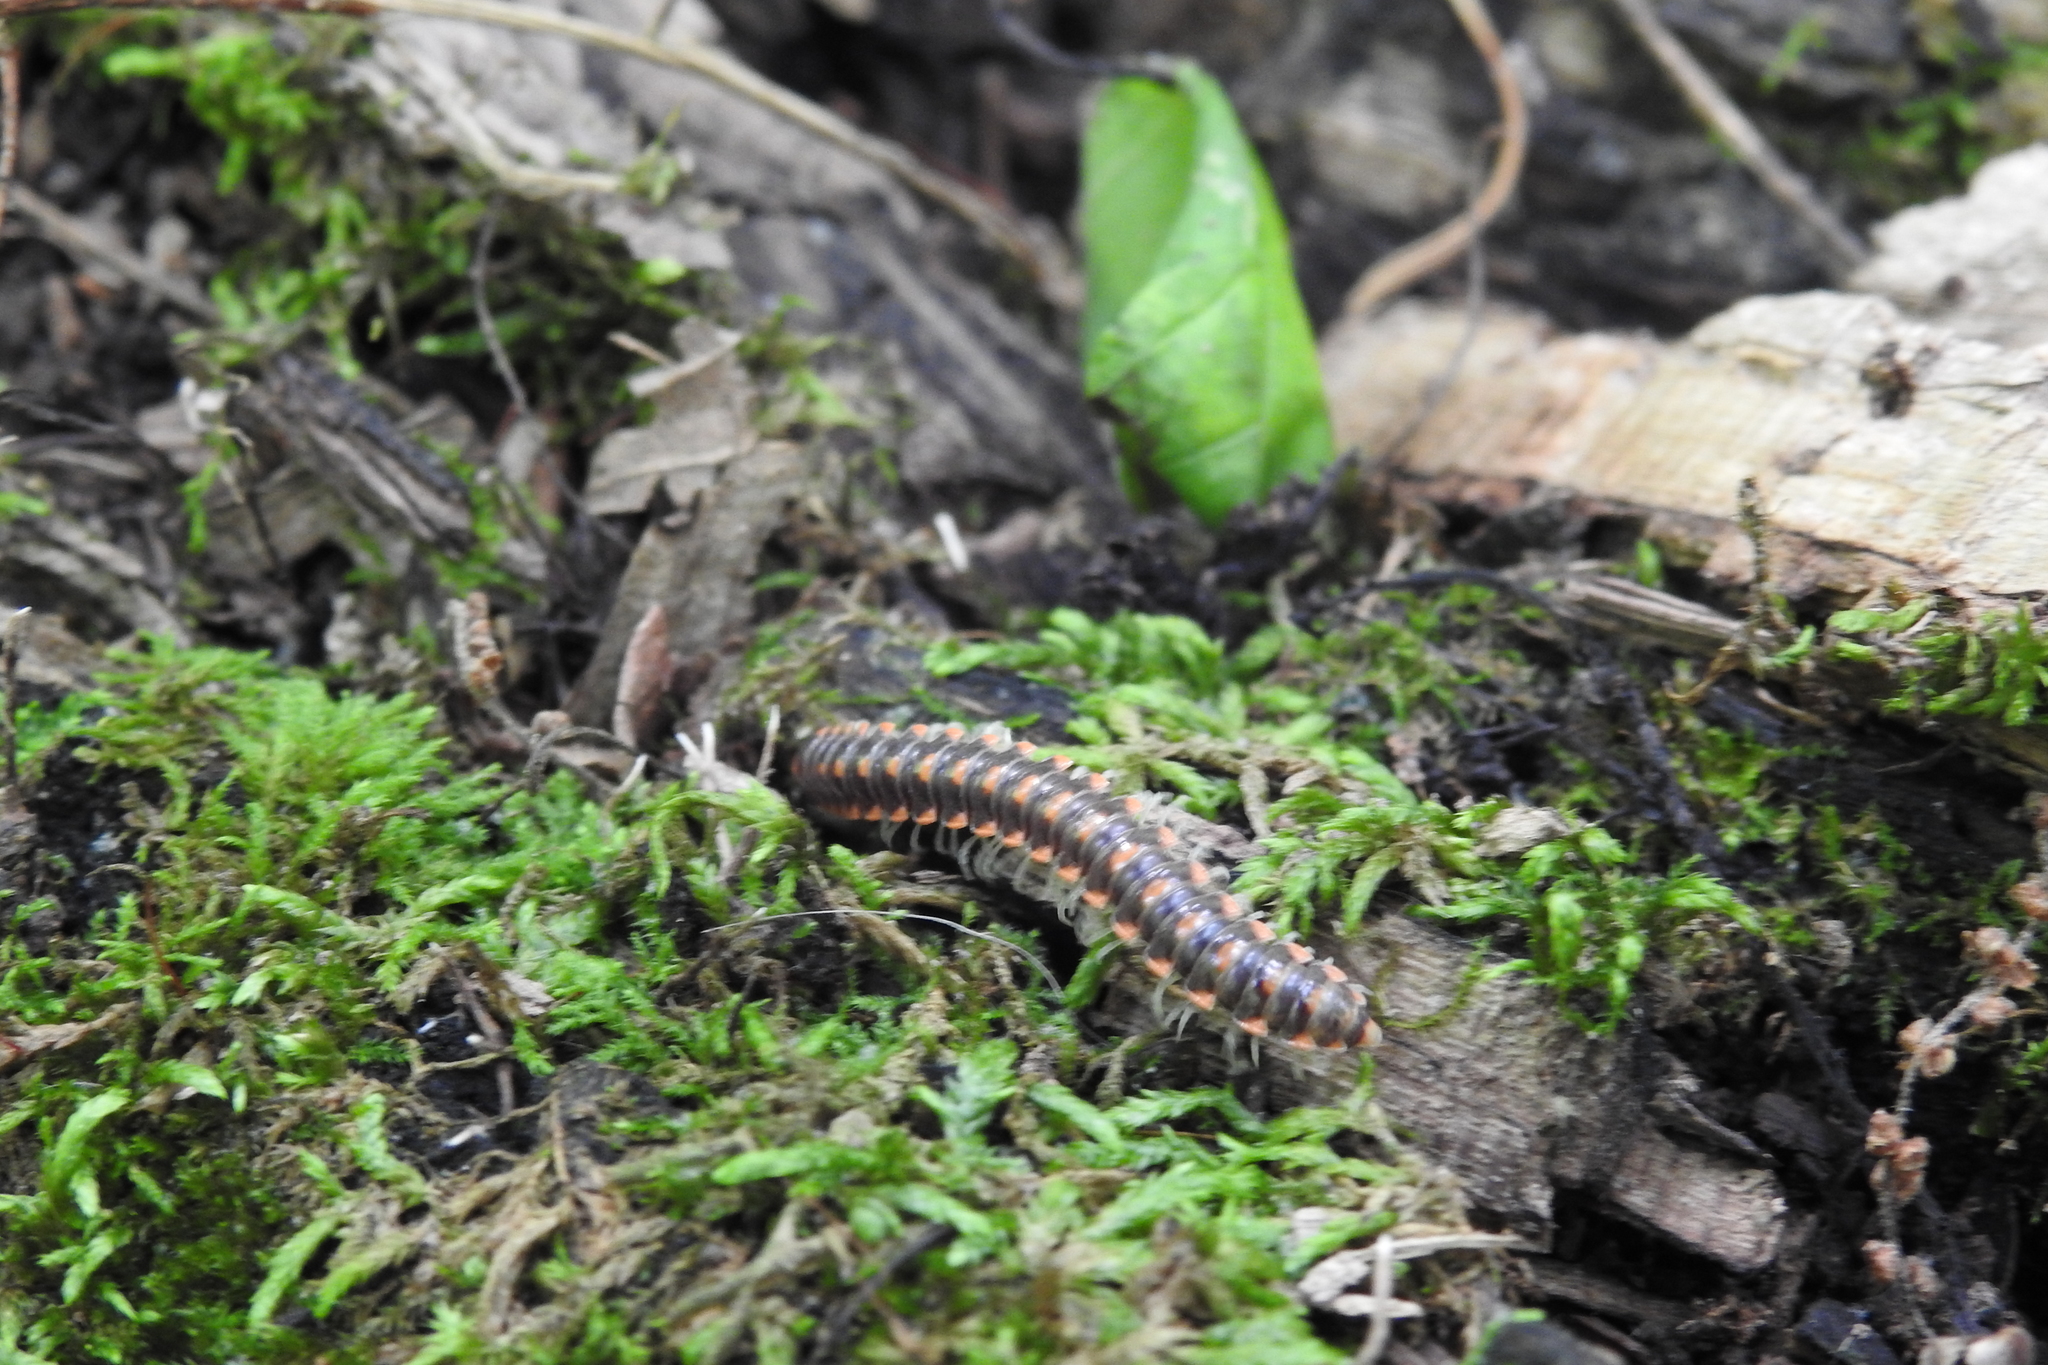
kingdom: Animalia
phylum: Arthropoda
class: Diplopoda
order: Polydesmida
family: Xystodesmidae
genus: Euryurus
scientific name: Euryurus leachii
